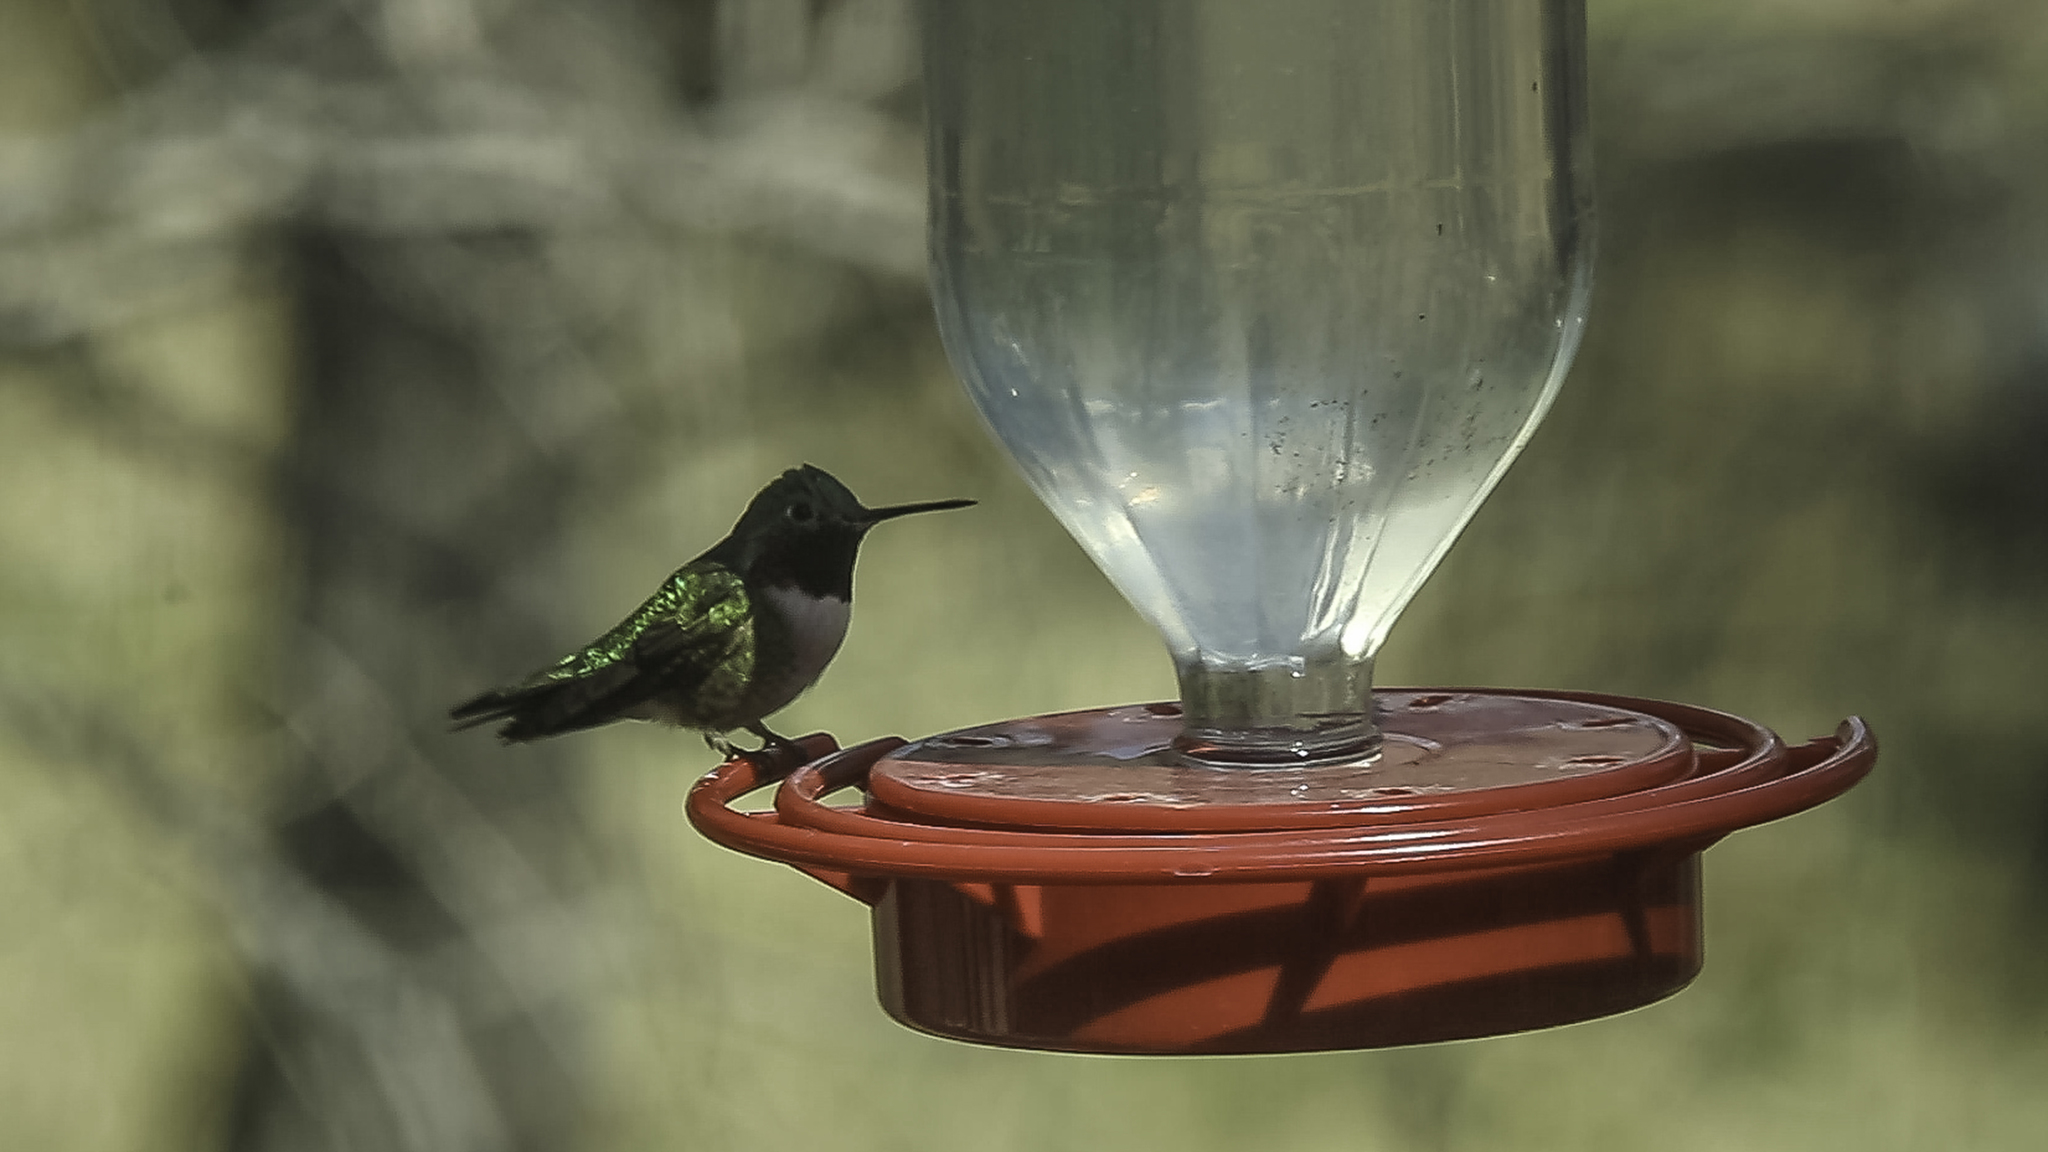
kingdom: Animalia
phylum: Chordata
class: Aves
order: Apodiformes
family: Trochilidae
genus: Selasphorus
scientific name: Selasphorus platycercus
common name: Broad-tailed hummingbird
